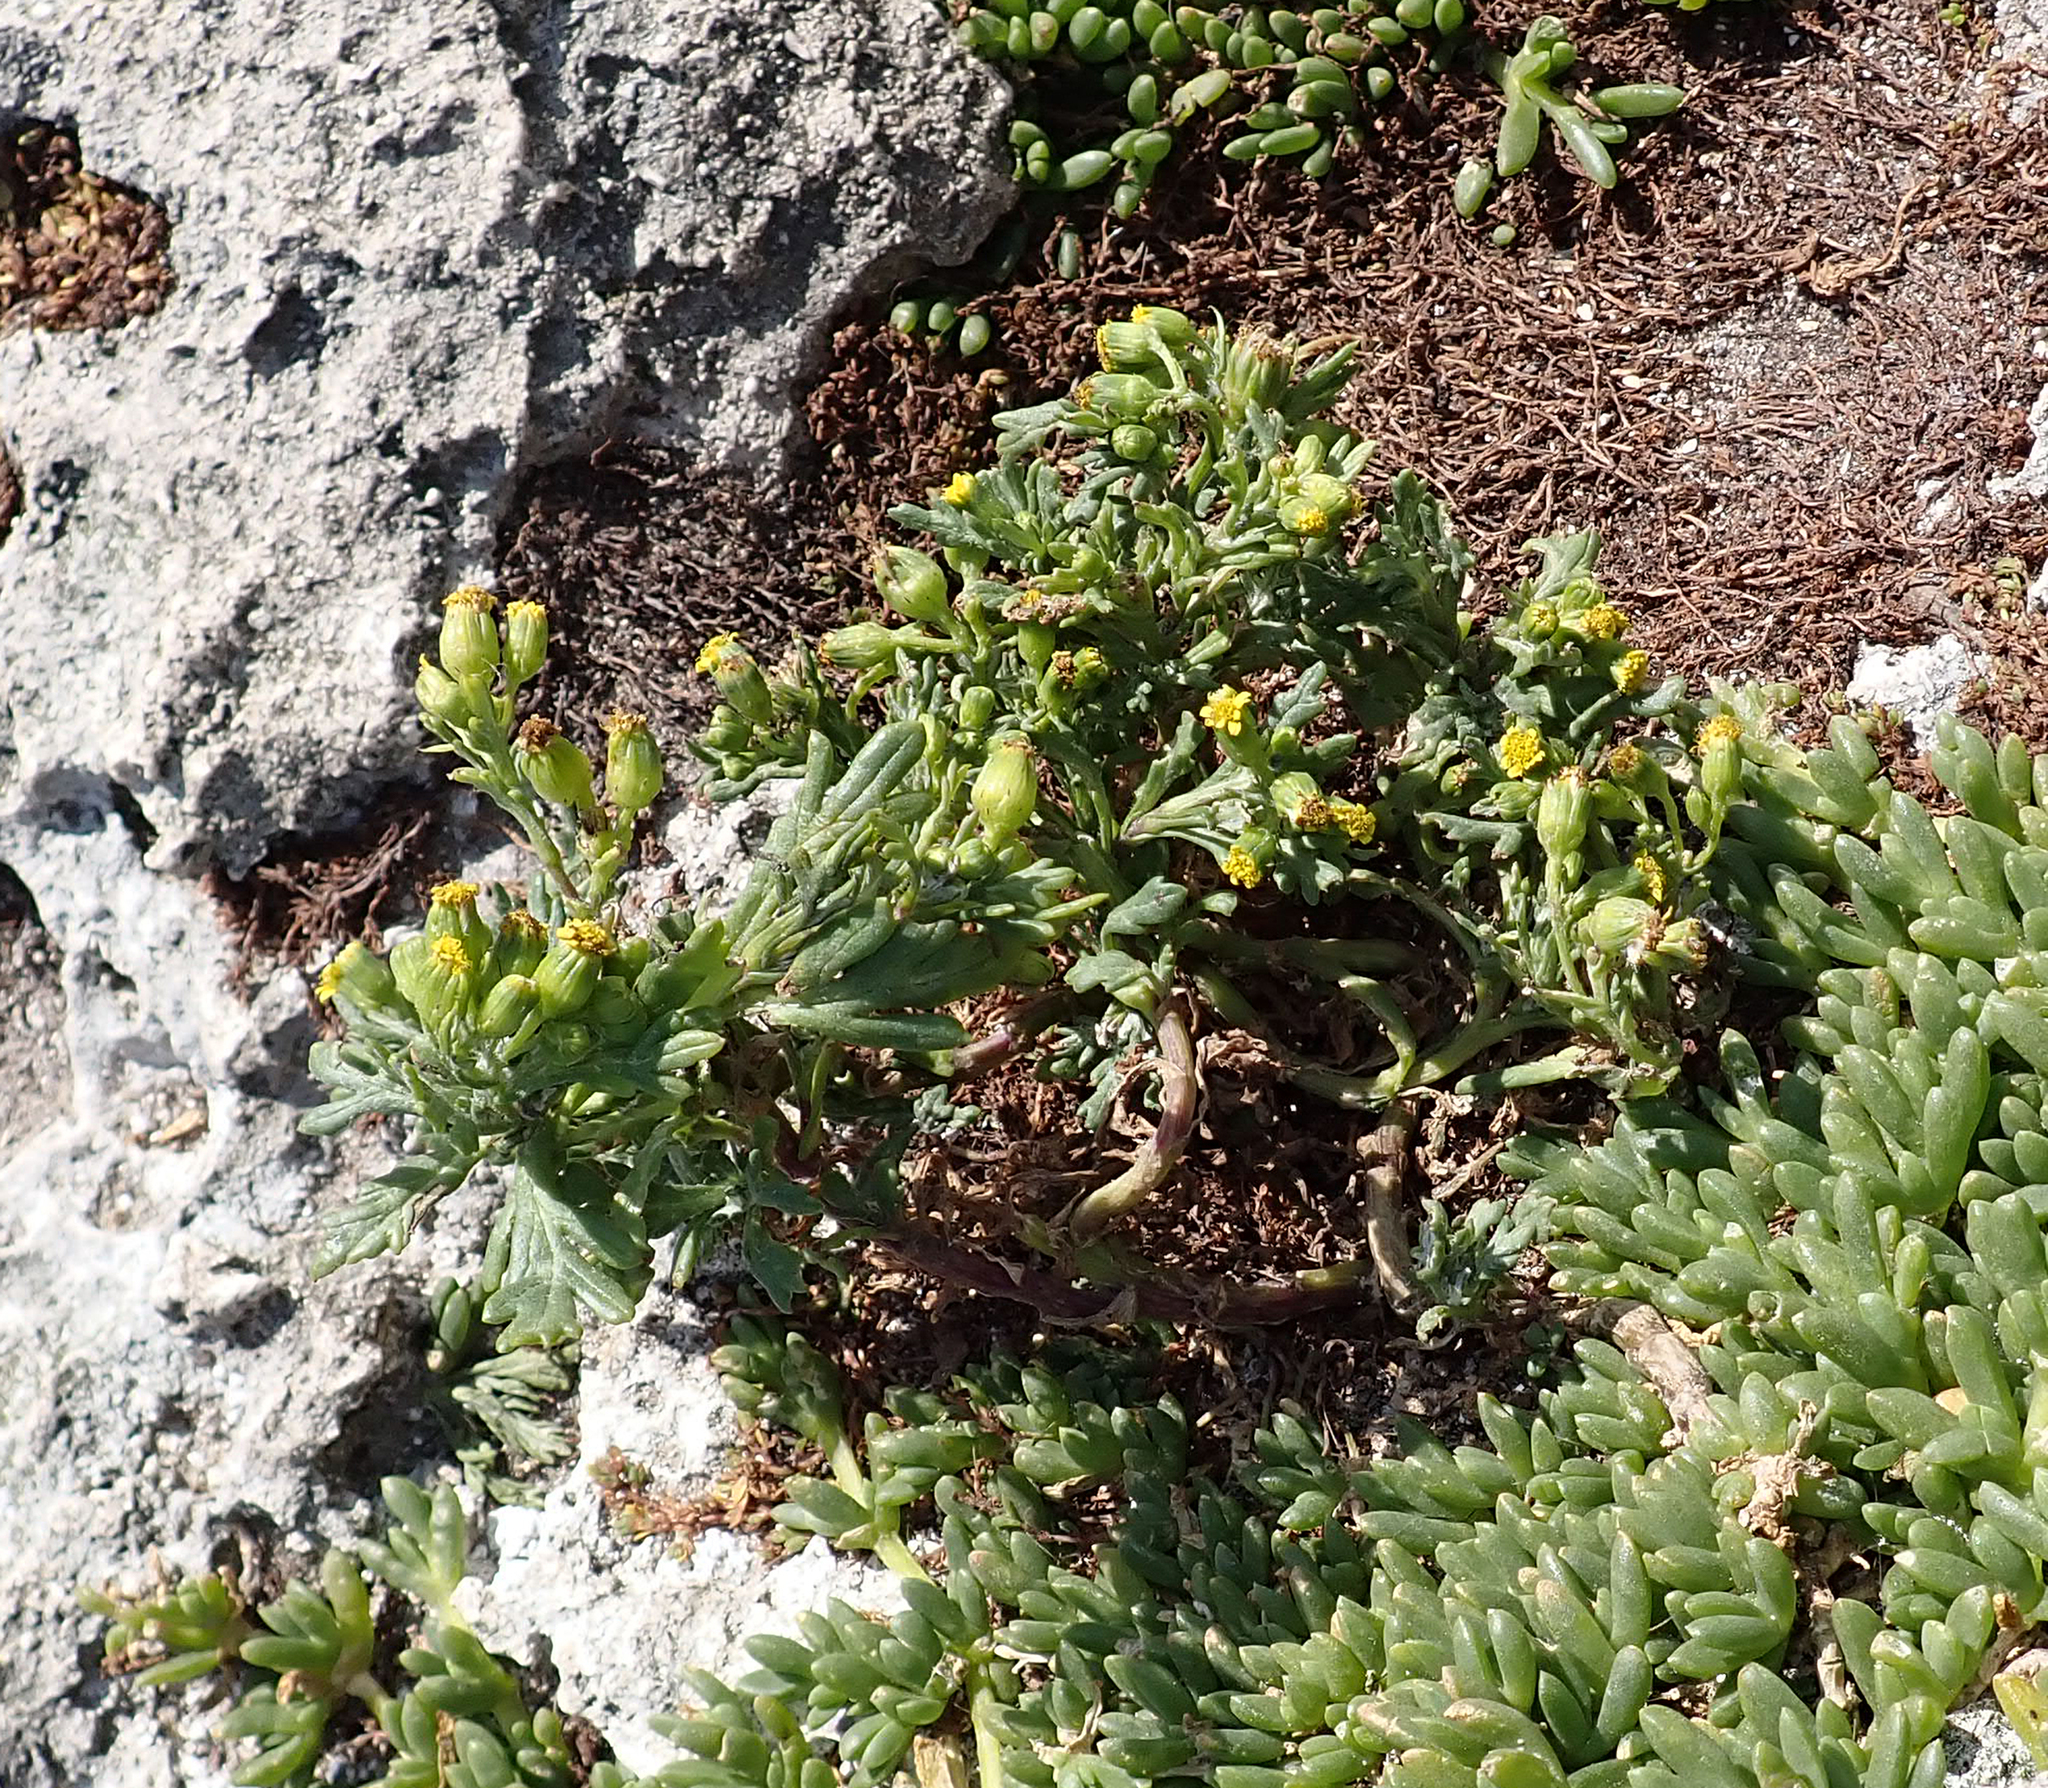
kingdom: Plantae
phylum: Tracheophyta
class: Magnoliopsida
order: Asterales
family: Asteraceae
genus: Senecio
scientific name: Senecio radiolatus
